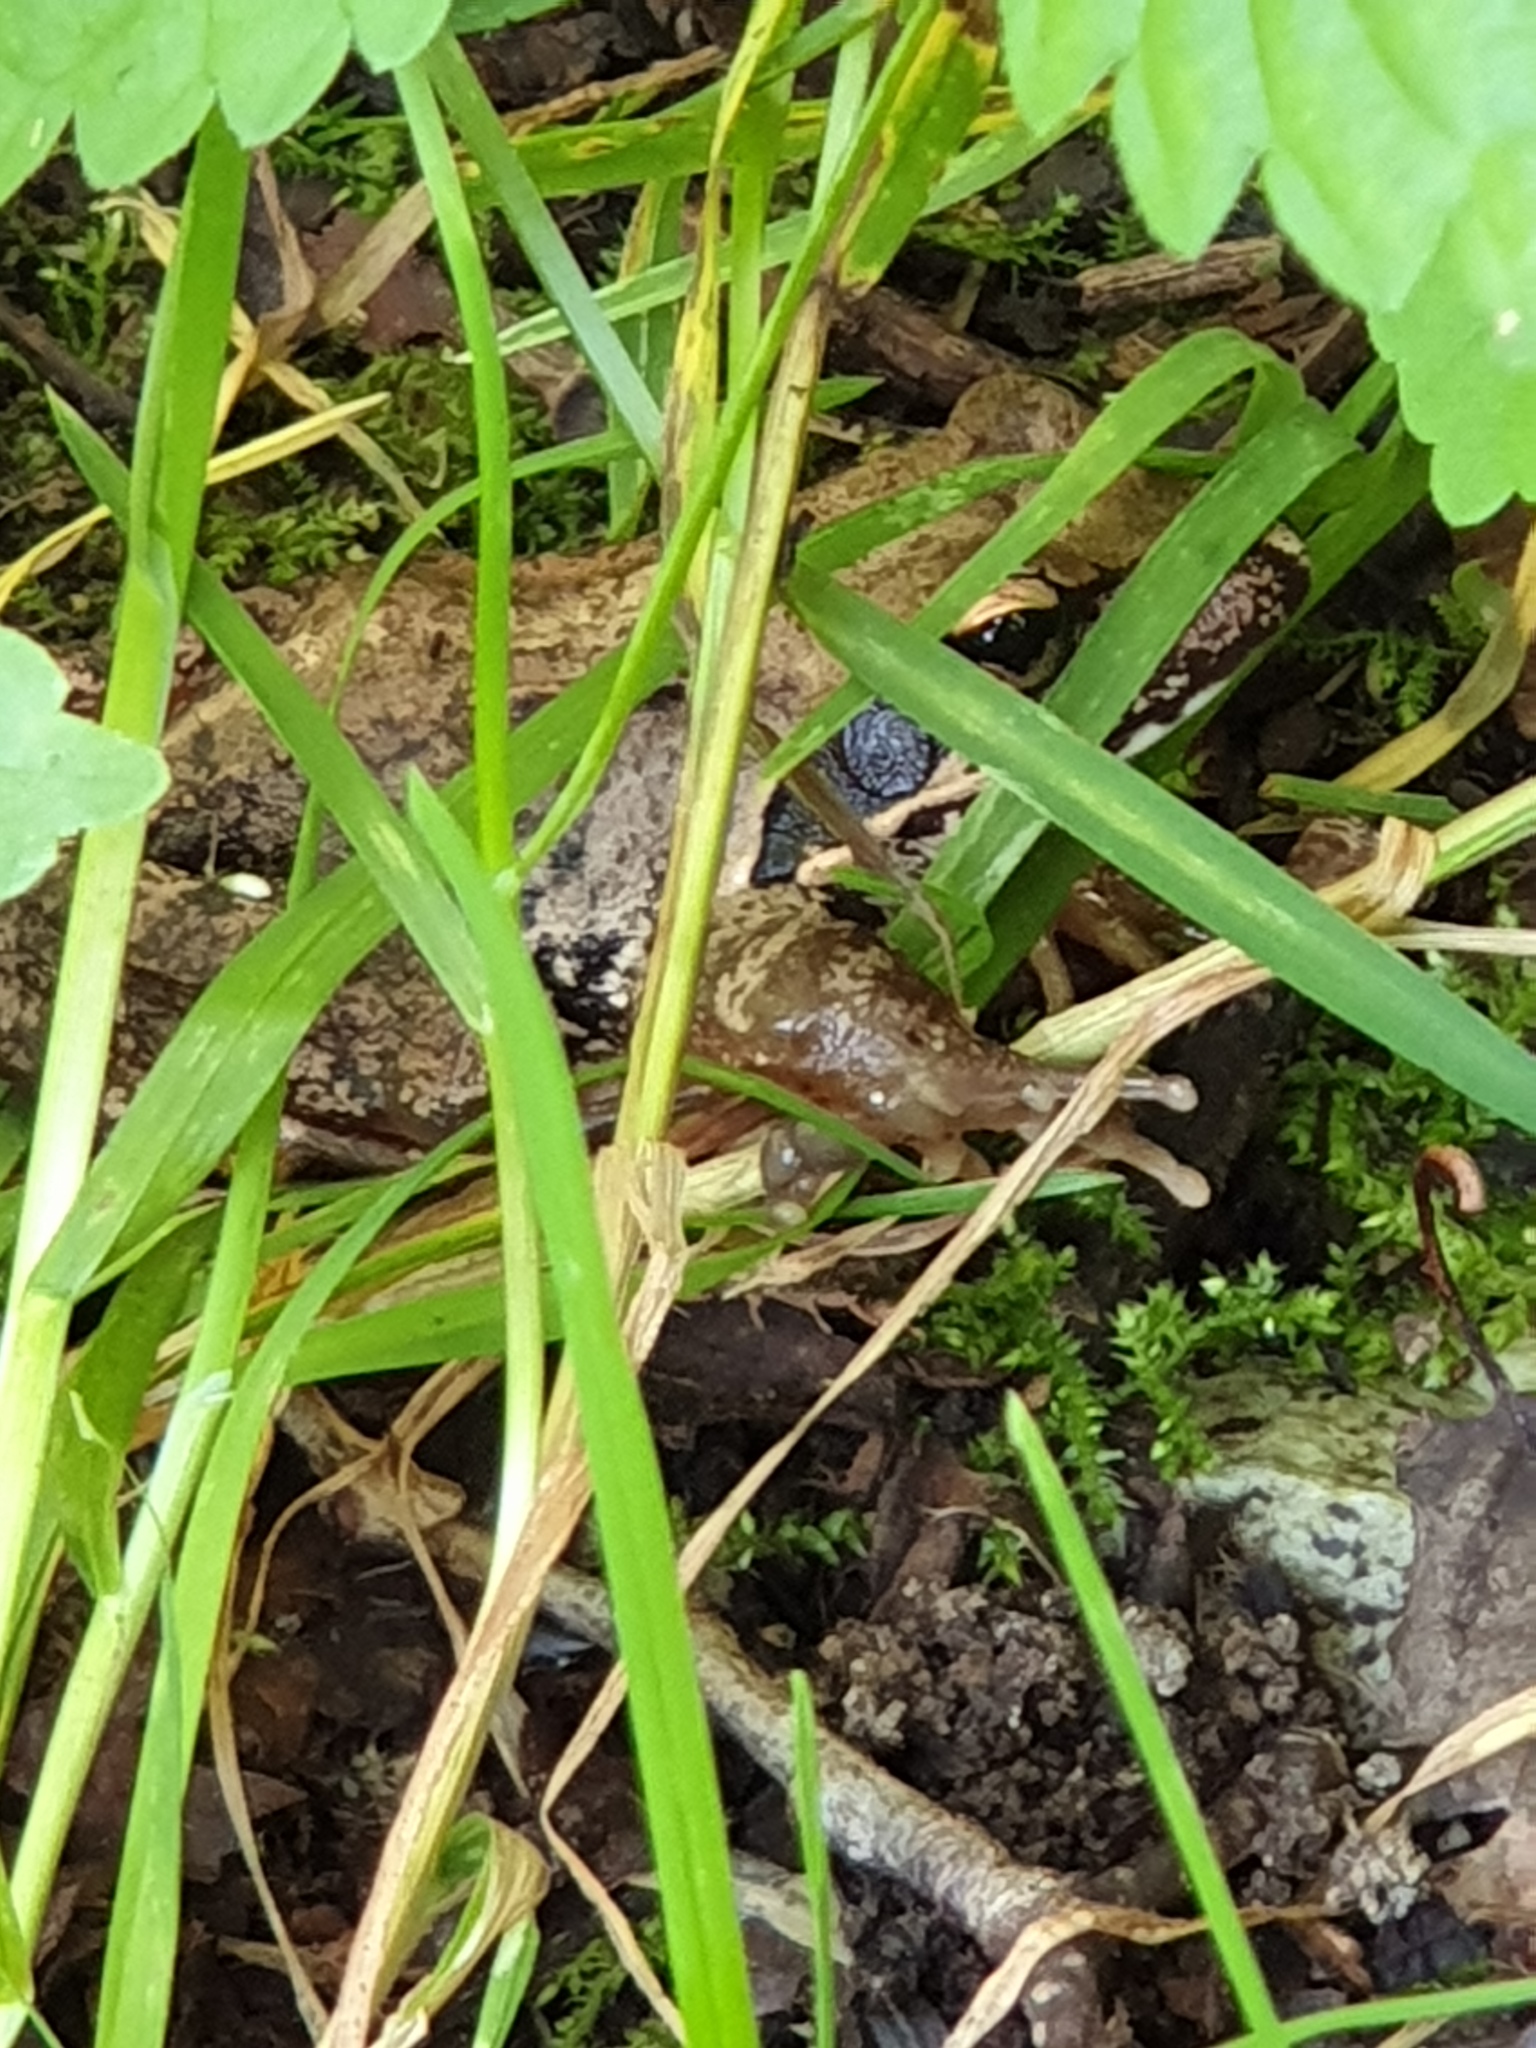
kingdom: Animalia
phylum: Chordata
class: Amphibia
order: Anura
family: Ranidae
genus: Rana
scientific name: Rana ornativentris
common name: Montane brown frog
